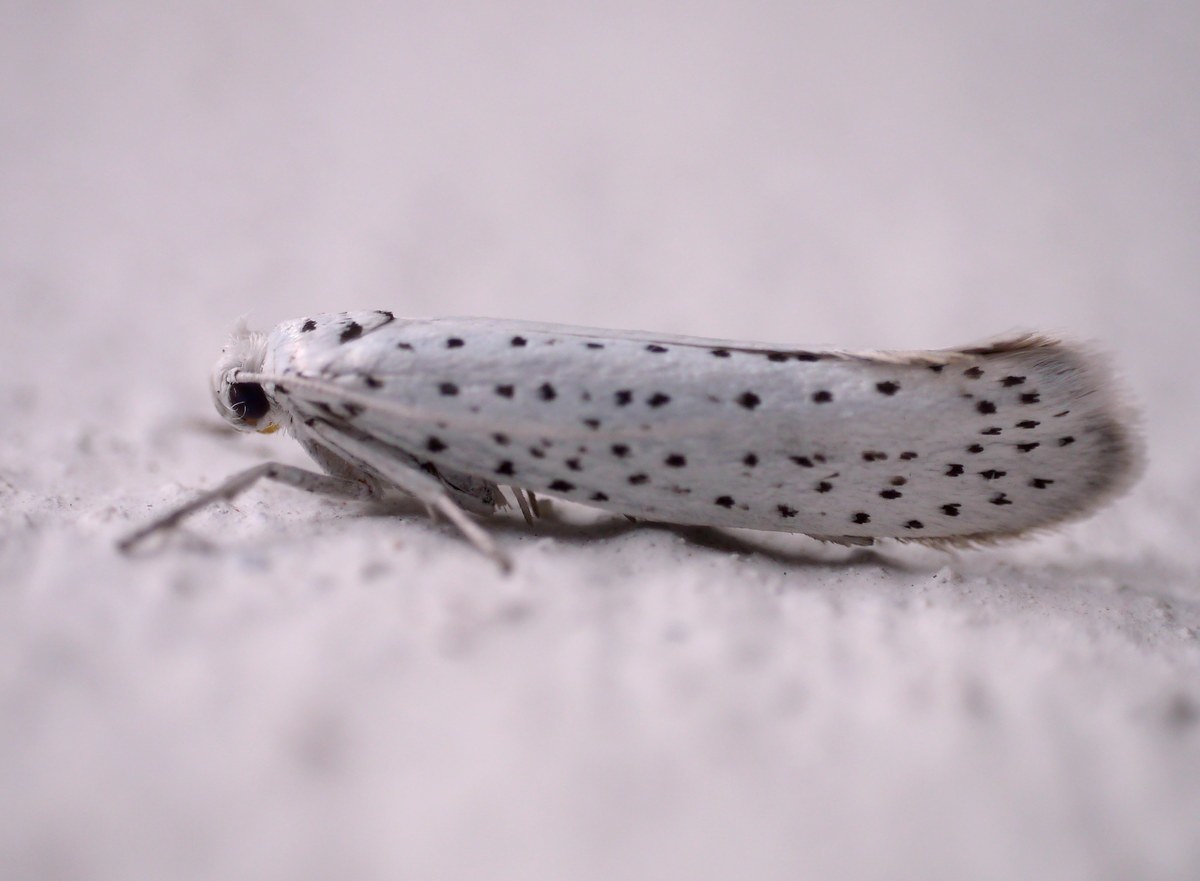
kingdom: Animalia
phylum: Arthropoda
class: Insecta
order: Lepidoptera
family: Yponomeutidae
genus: Yponomeuta
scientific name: Yponomeuta evonymella
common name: Bird-cherry ermine
